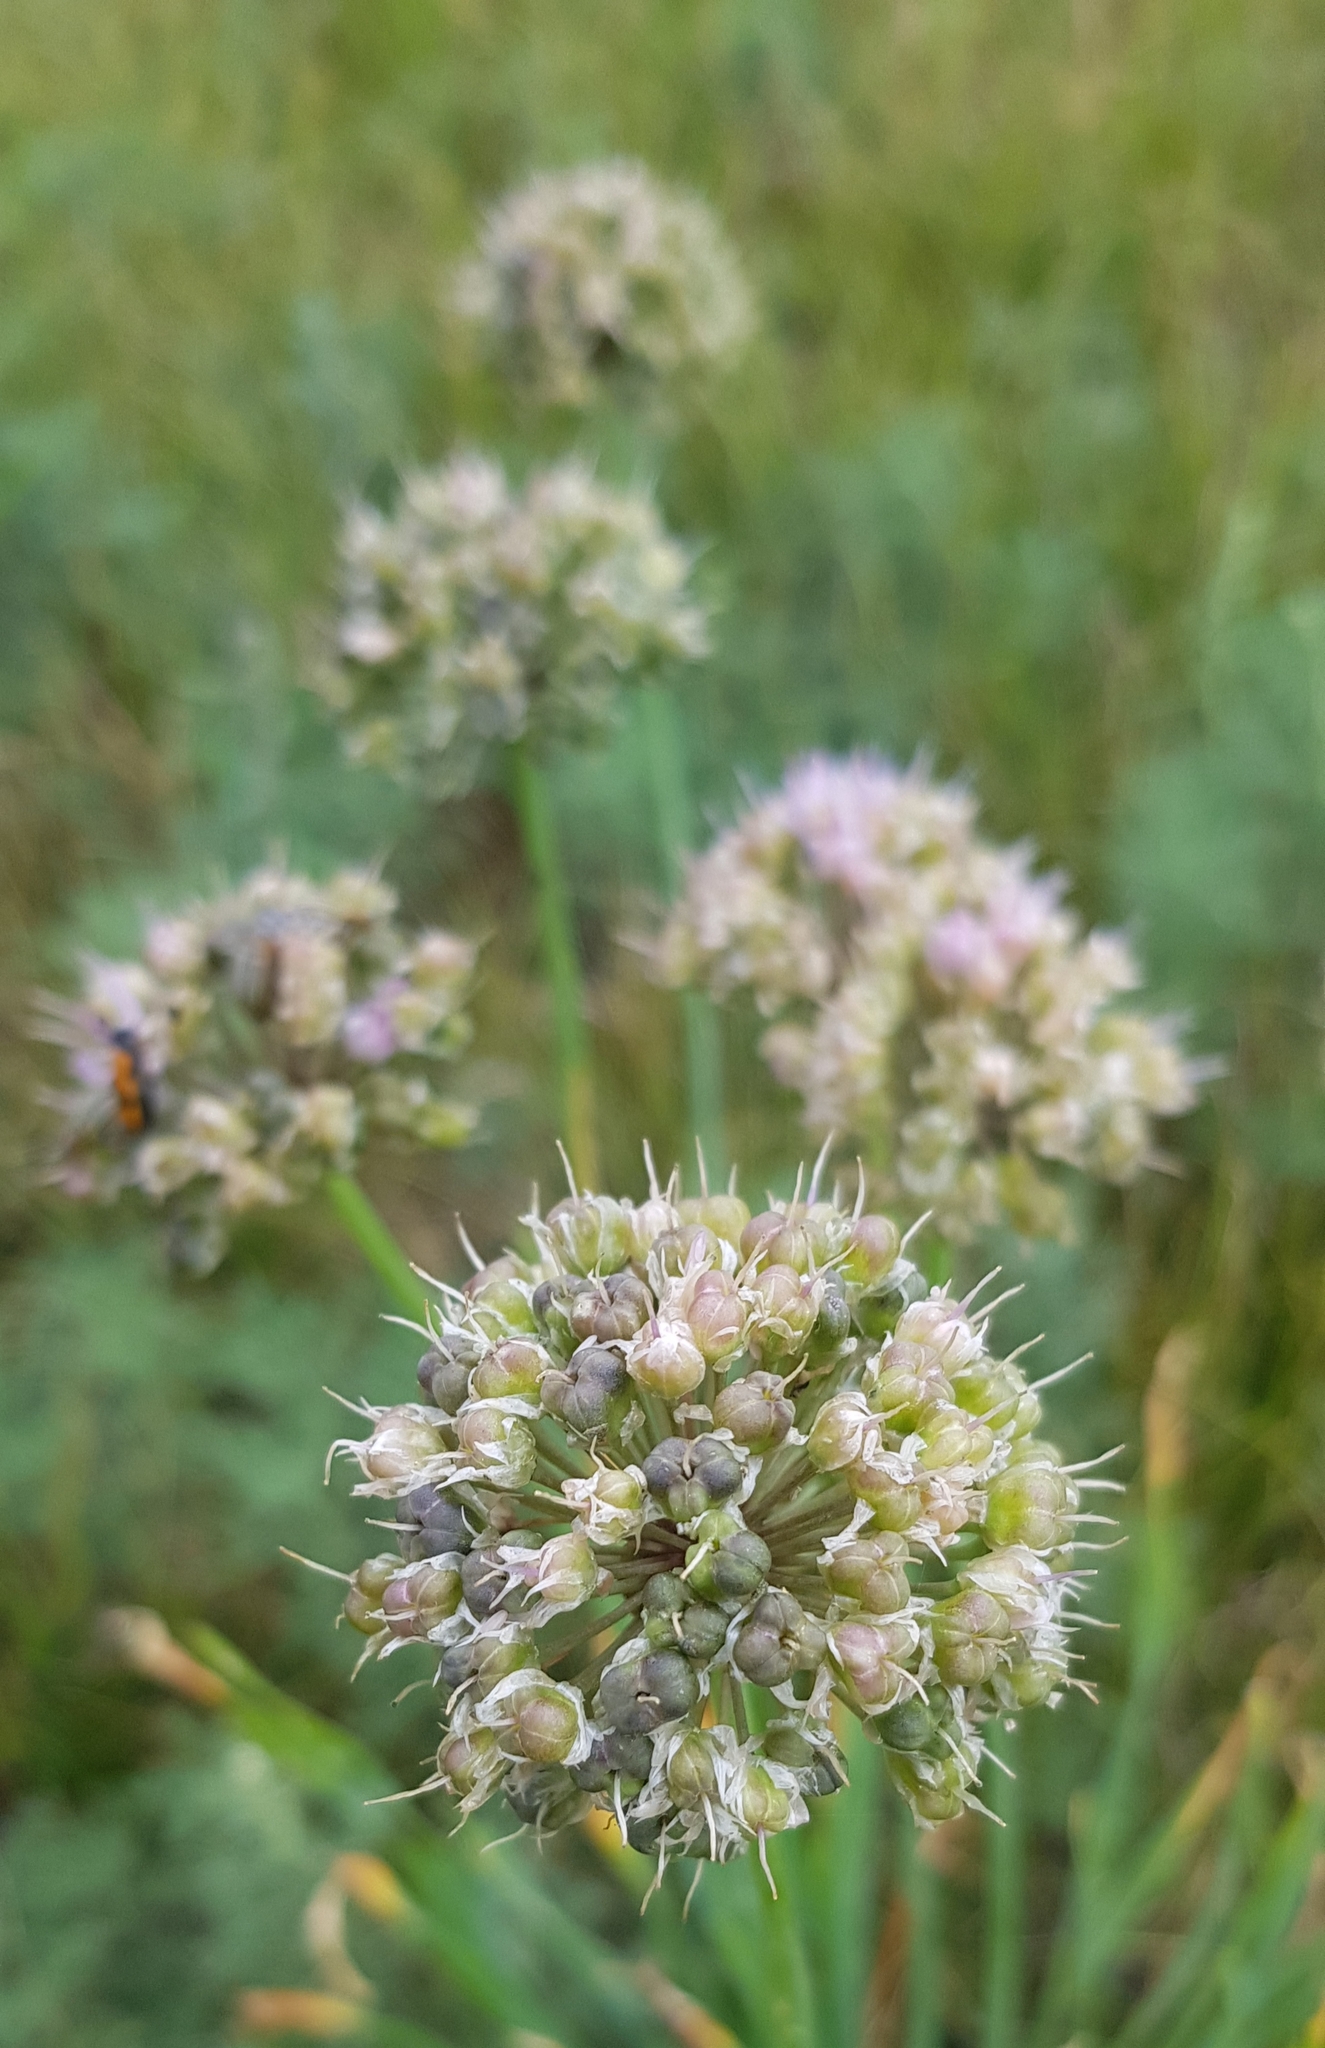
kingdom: Plantae
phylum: Tracheophyta
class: Liliopsida
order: Asparagales
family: Amaryllidaceae
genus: Allium
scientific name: Allium splendens
